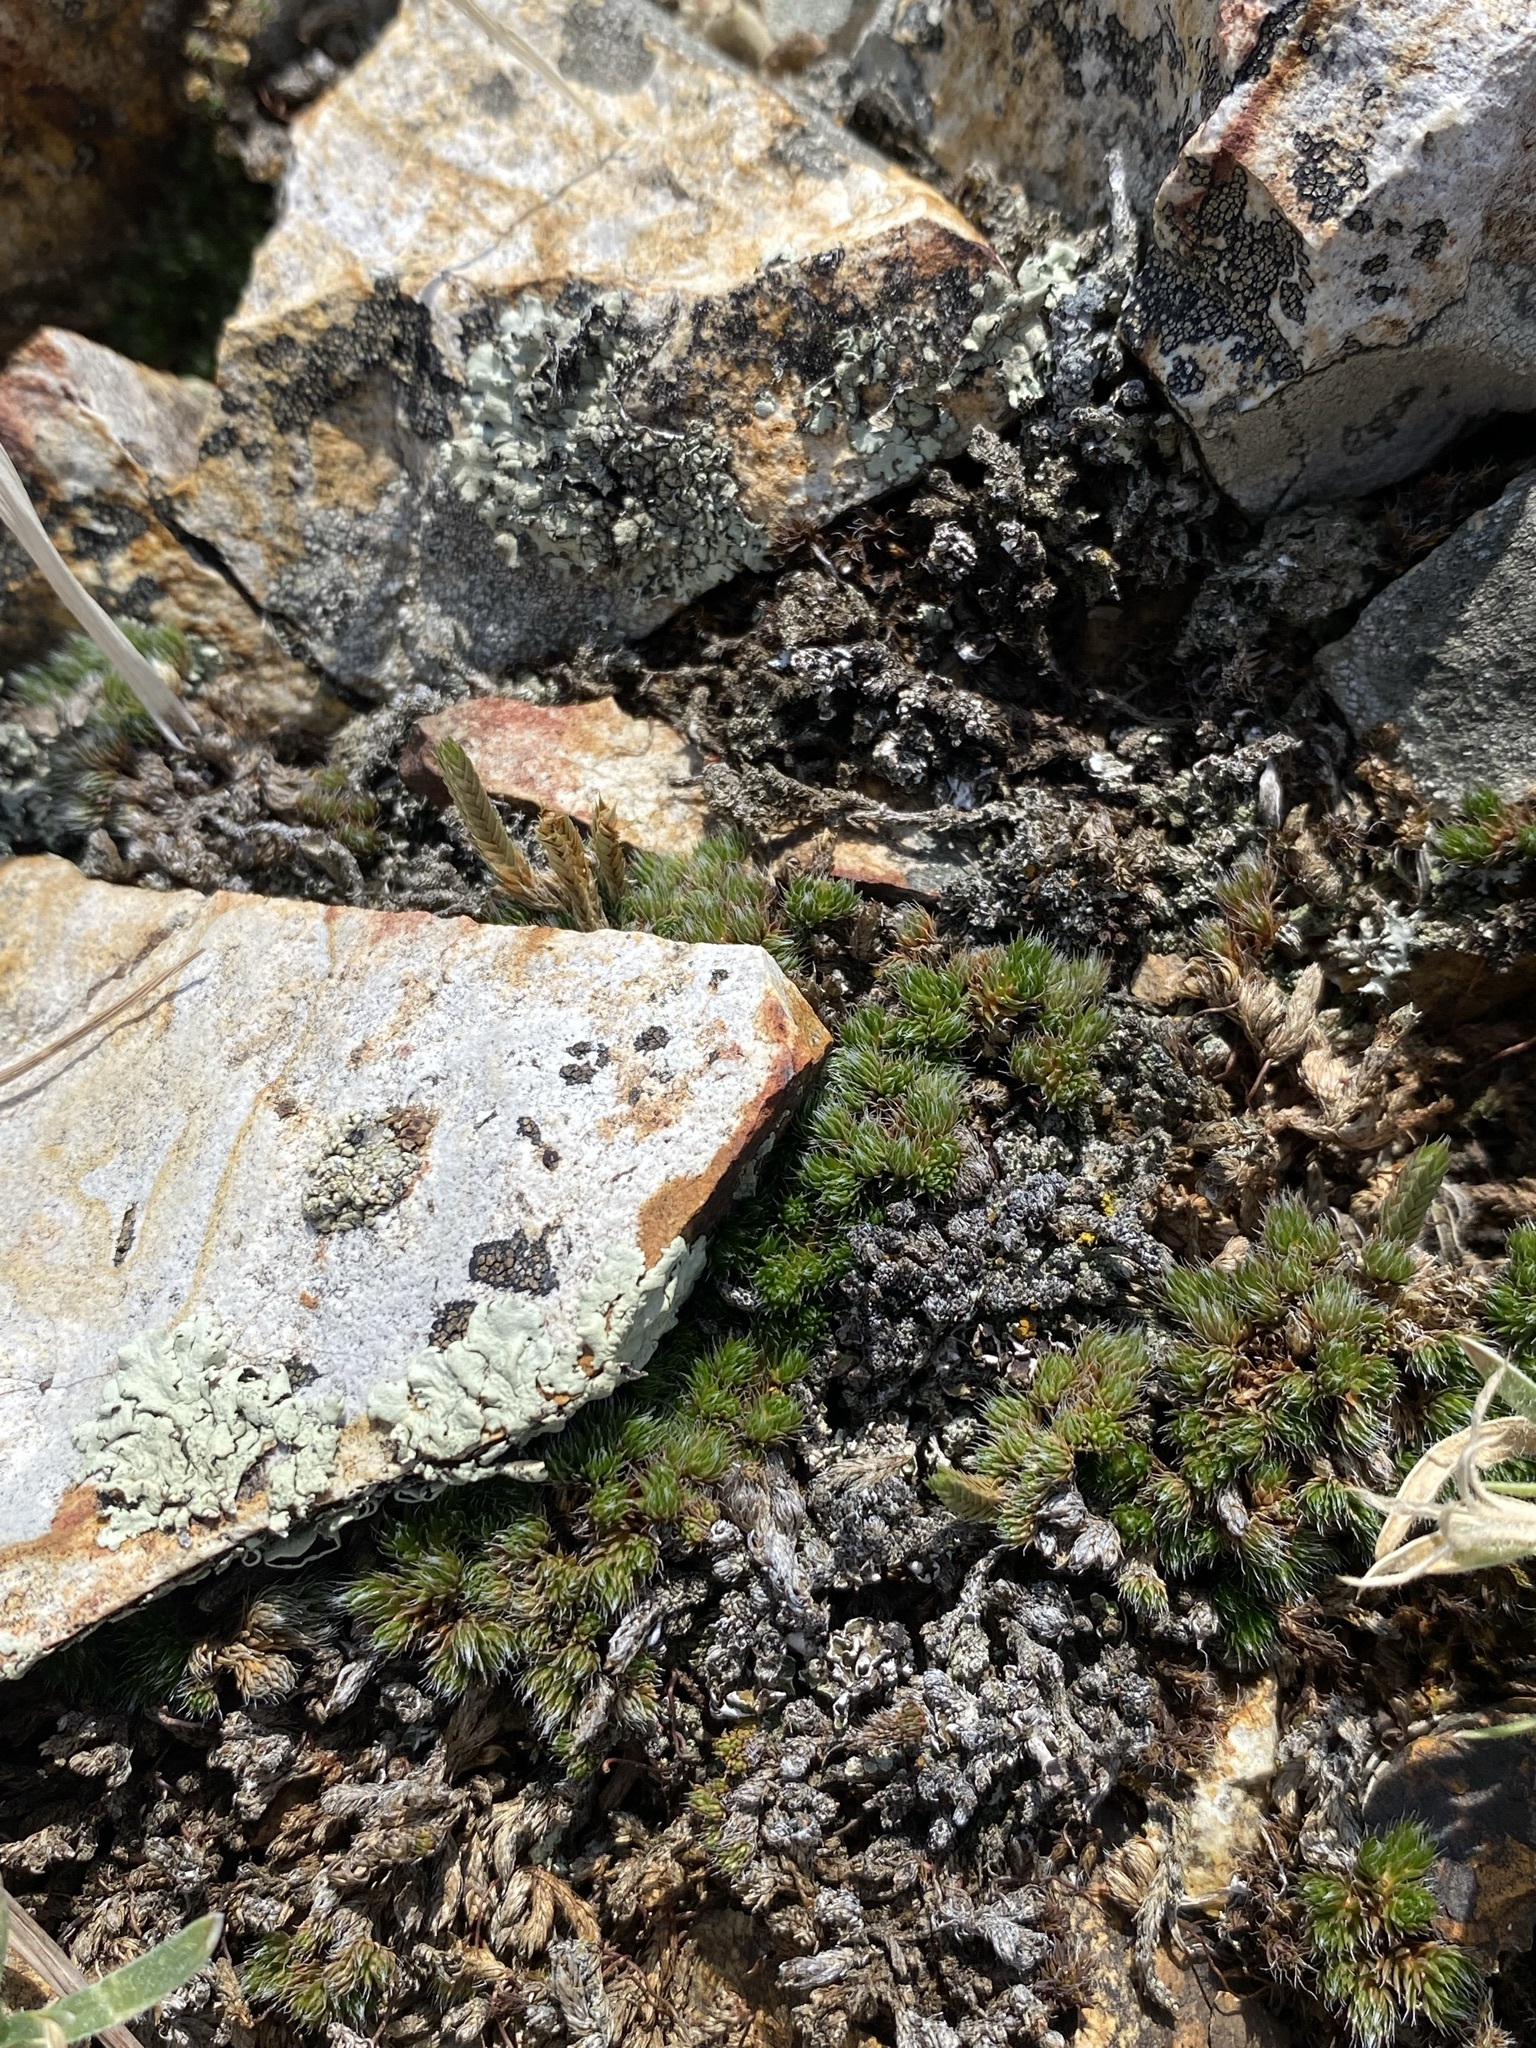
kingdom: Plantae
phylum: Tracheophyta
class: Lycopodiopsida
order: Selaginellales
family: Selaginellaceae
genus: Selaginella
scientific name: Selaginella densa
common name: Mountain spike-moss
